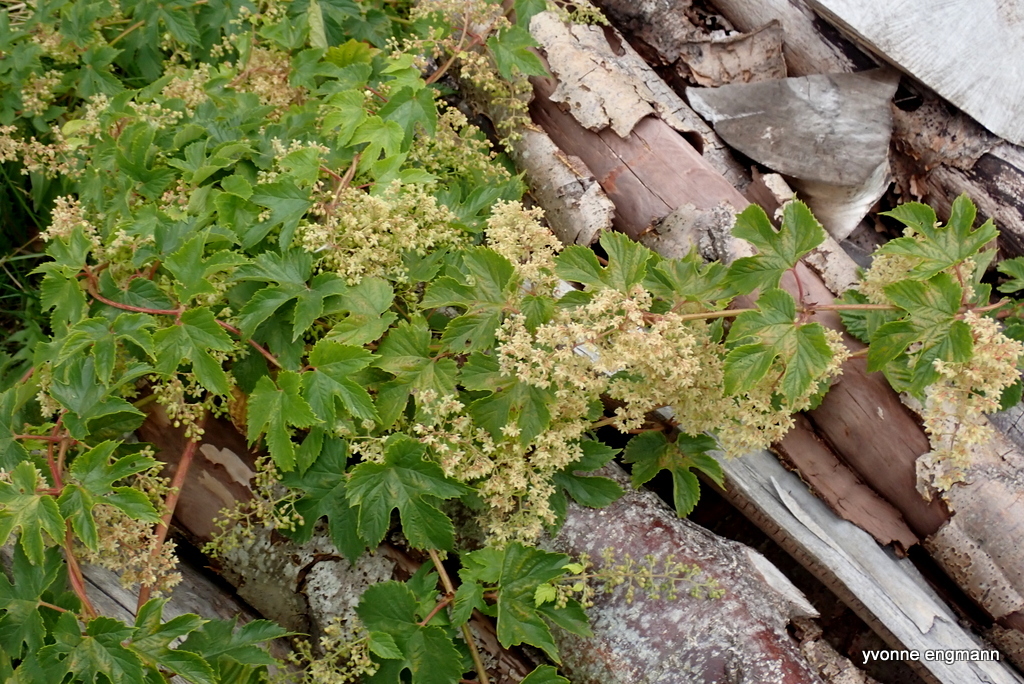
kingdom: Plantae
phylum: Tracheophyta
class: Magnoliopsida
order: Rosales
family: Cannabaceae
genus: Humulus
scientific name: Humulus lupulus
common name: Hop
